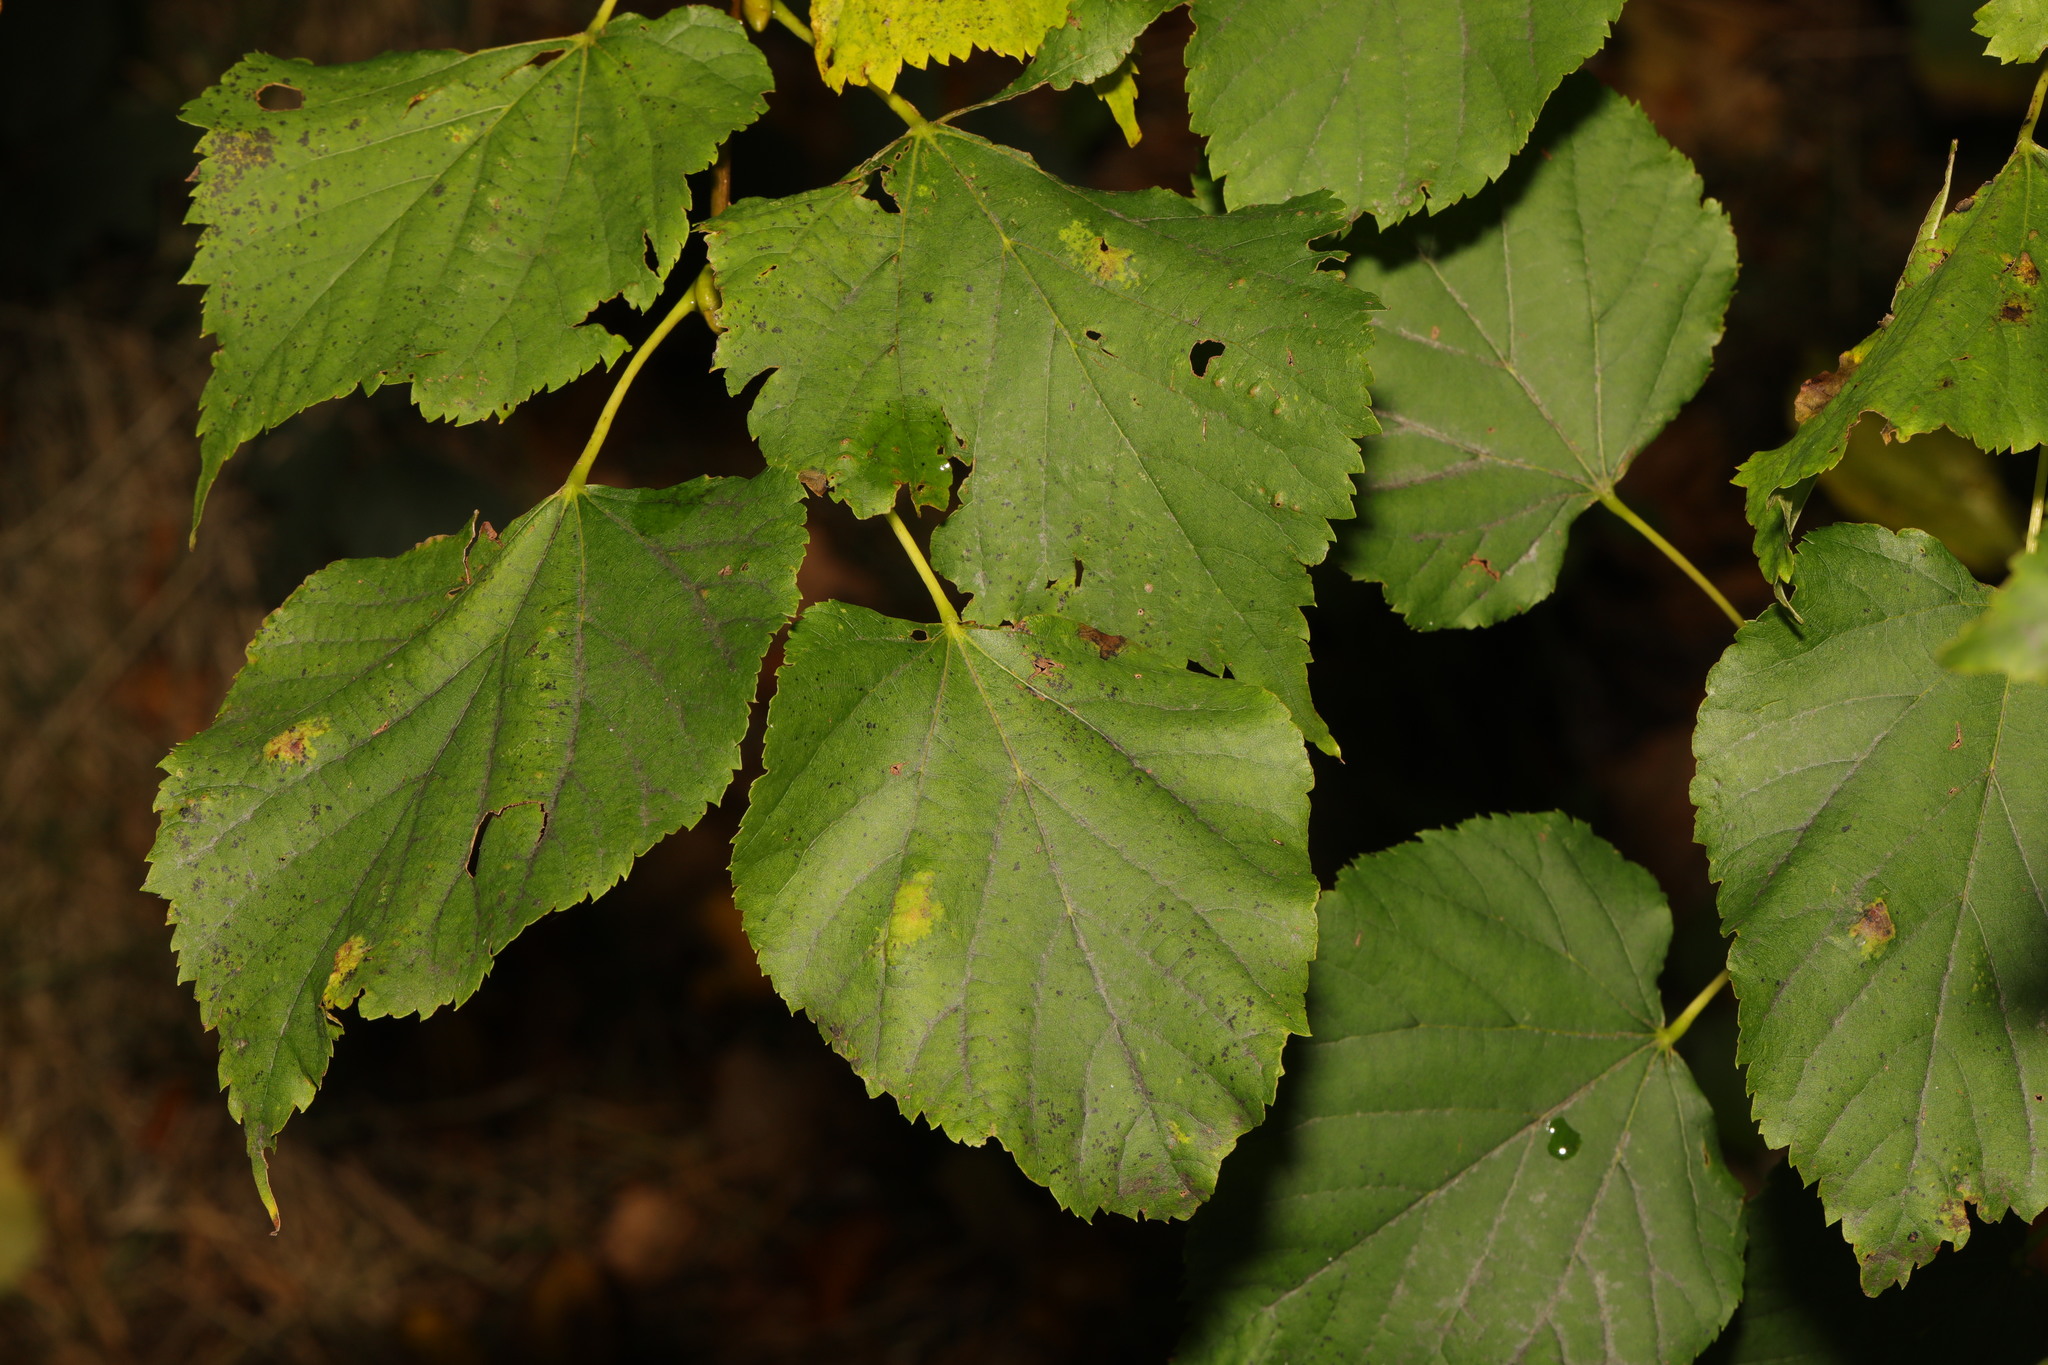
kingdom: Plantae
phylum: Tracheophyta
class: Magnoliopsida
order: Malvales
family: Malvaceae
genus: Tilia
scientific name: Tilia europaea
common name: European linden
